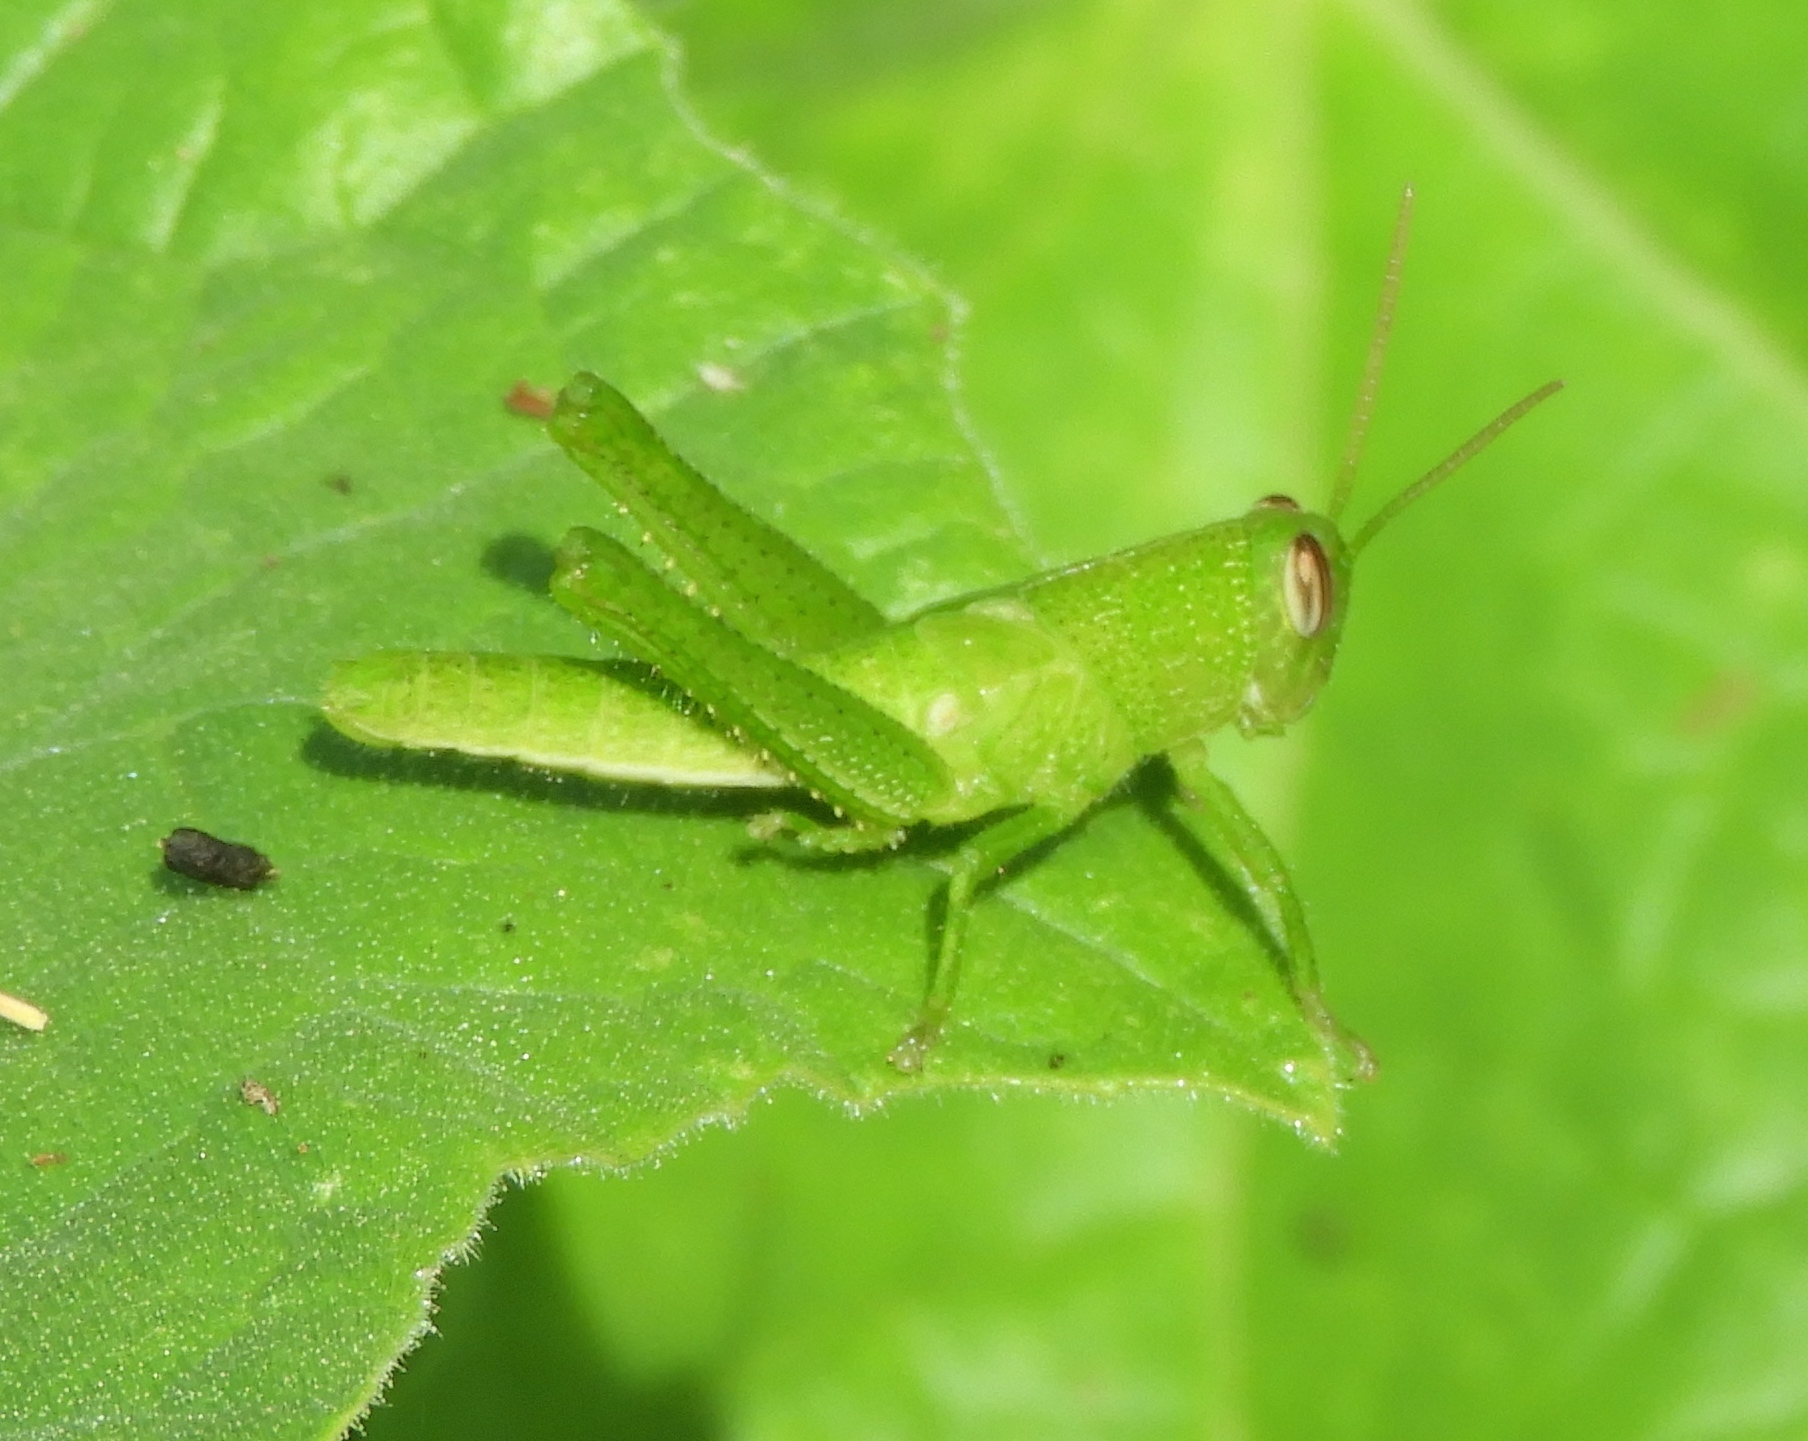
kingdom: Animalia
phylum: Arthropoda
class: Insecta
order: Orthoptera
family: Acrididae
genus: Schistocerca
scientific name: Schistocerca
